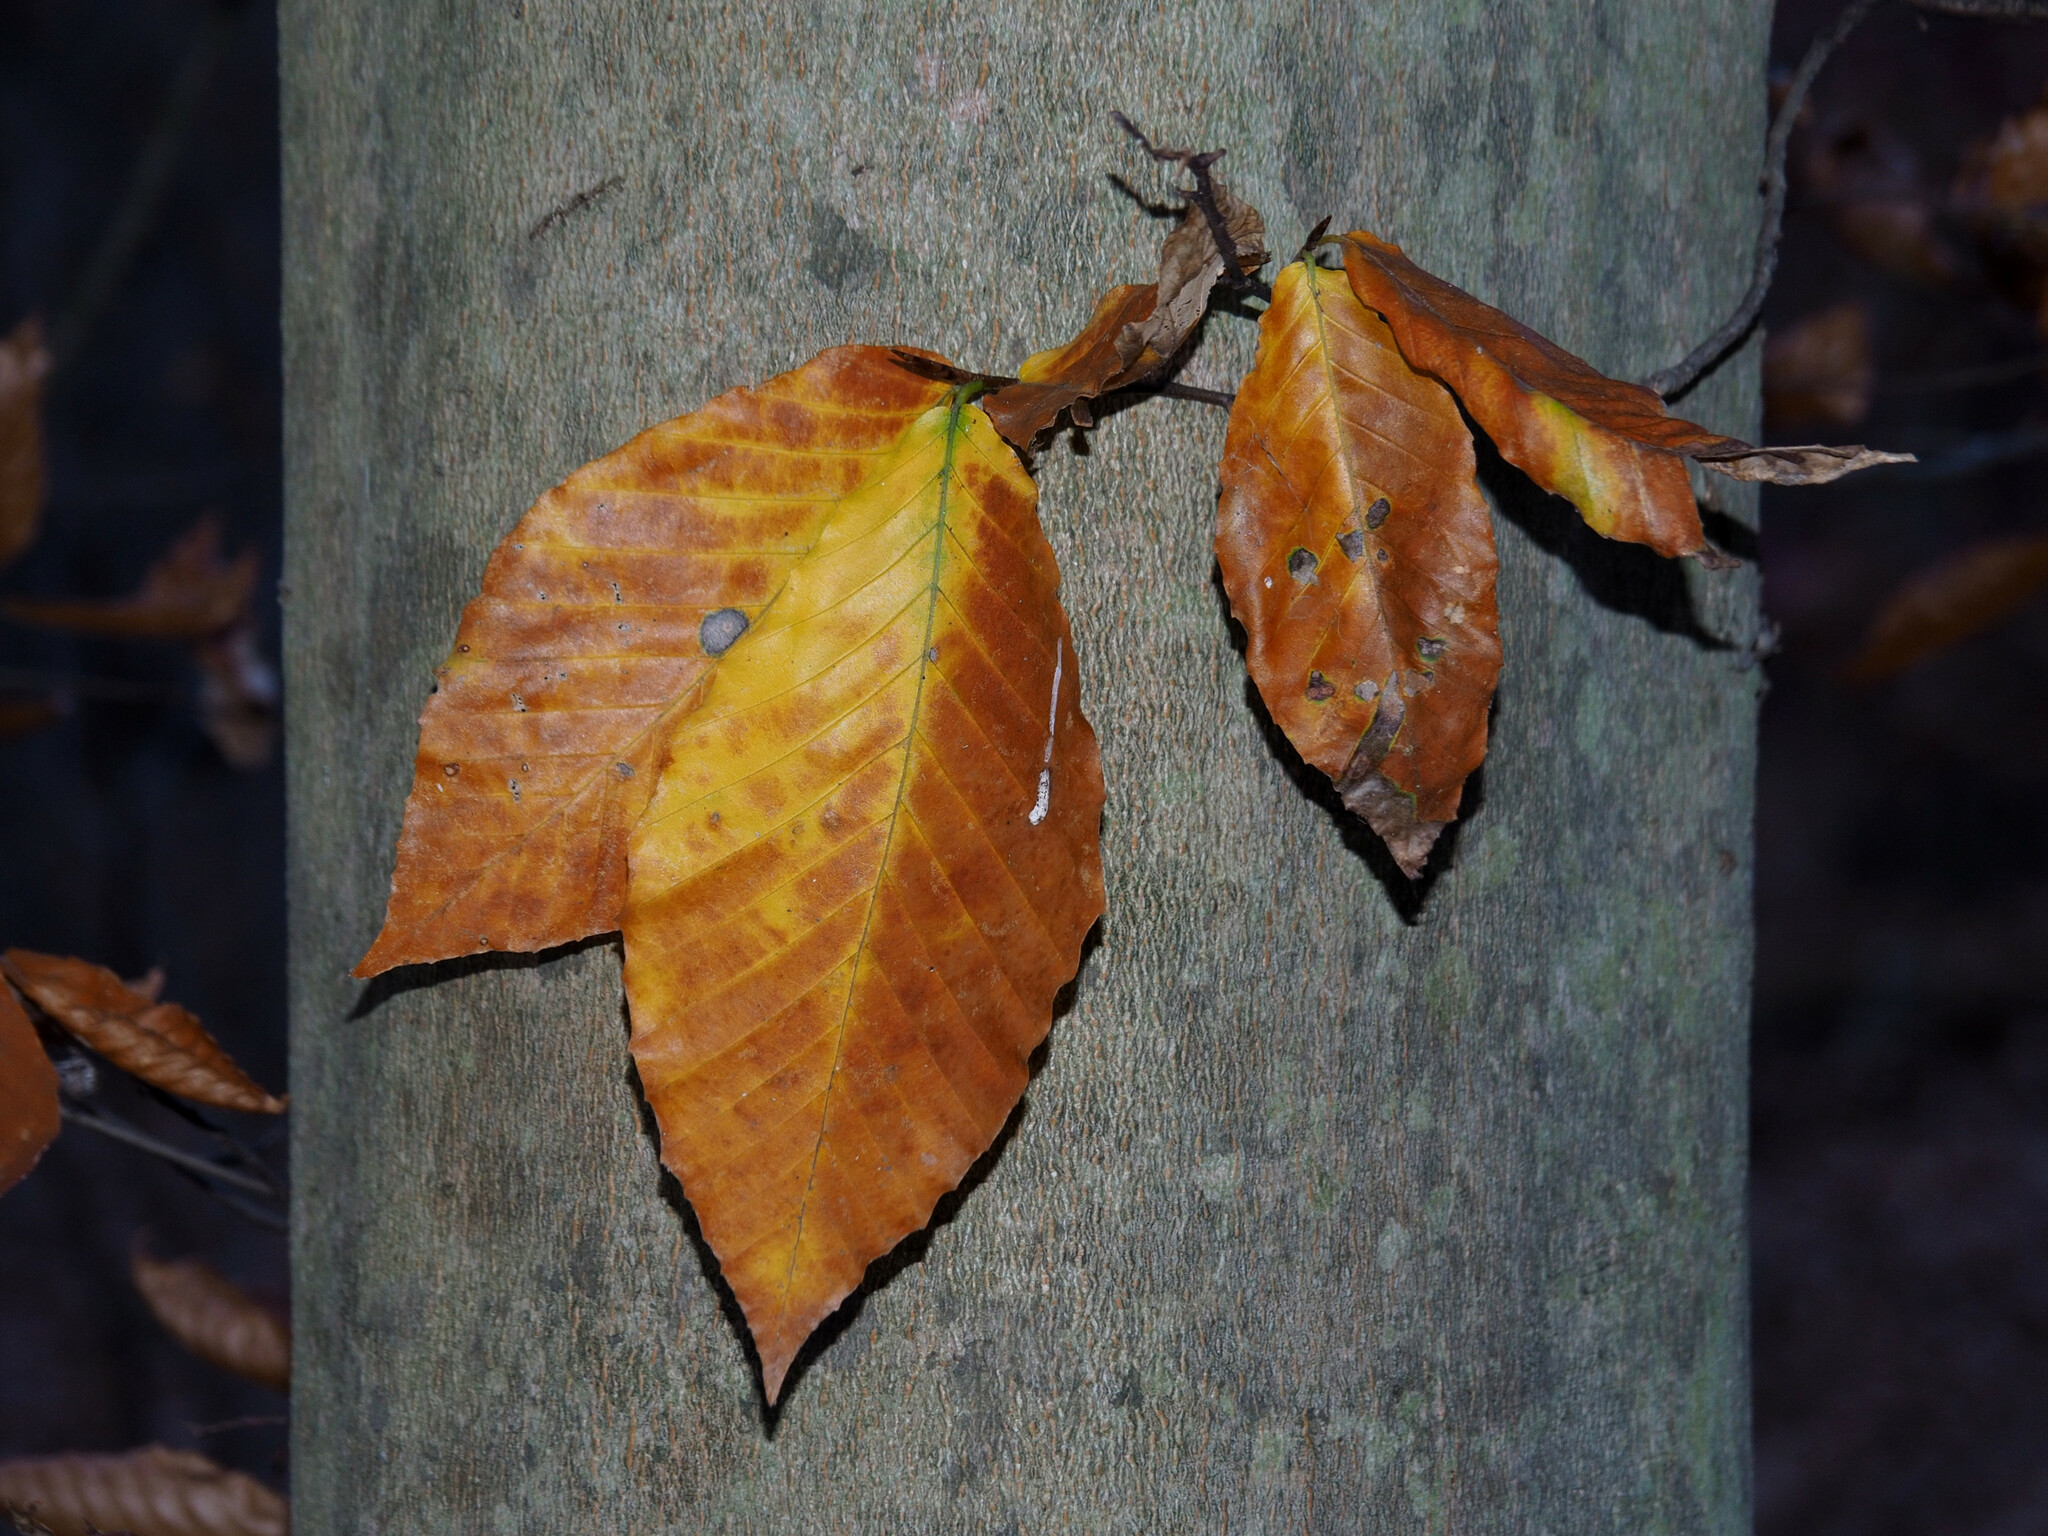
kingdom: Plantae
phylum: Tracheophyta
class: Magnoliopsida
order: Fagales
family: Fagaceae
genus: Fagus
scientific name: Fagus grandifolia
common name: American beech
